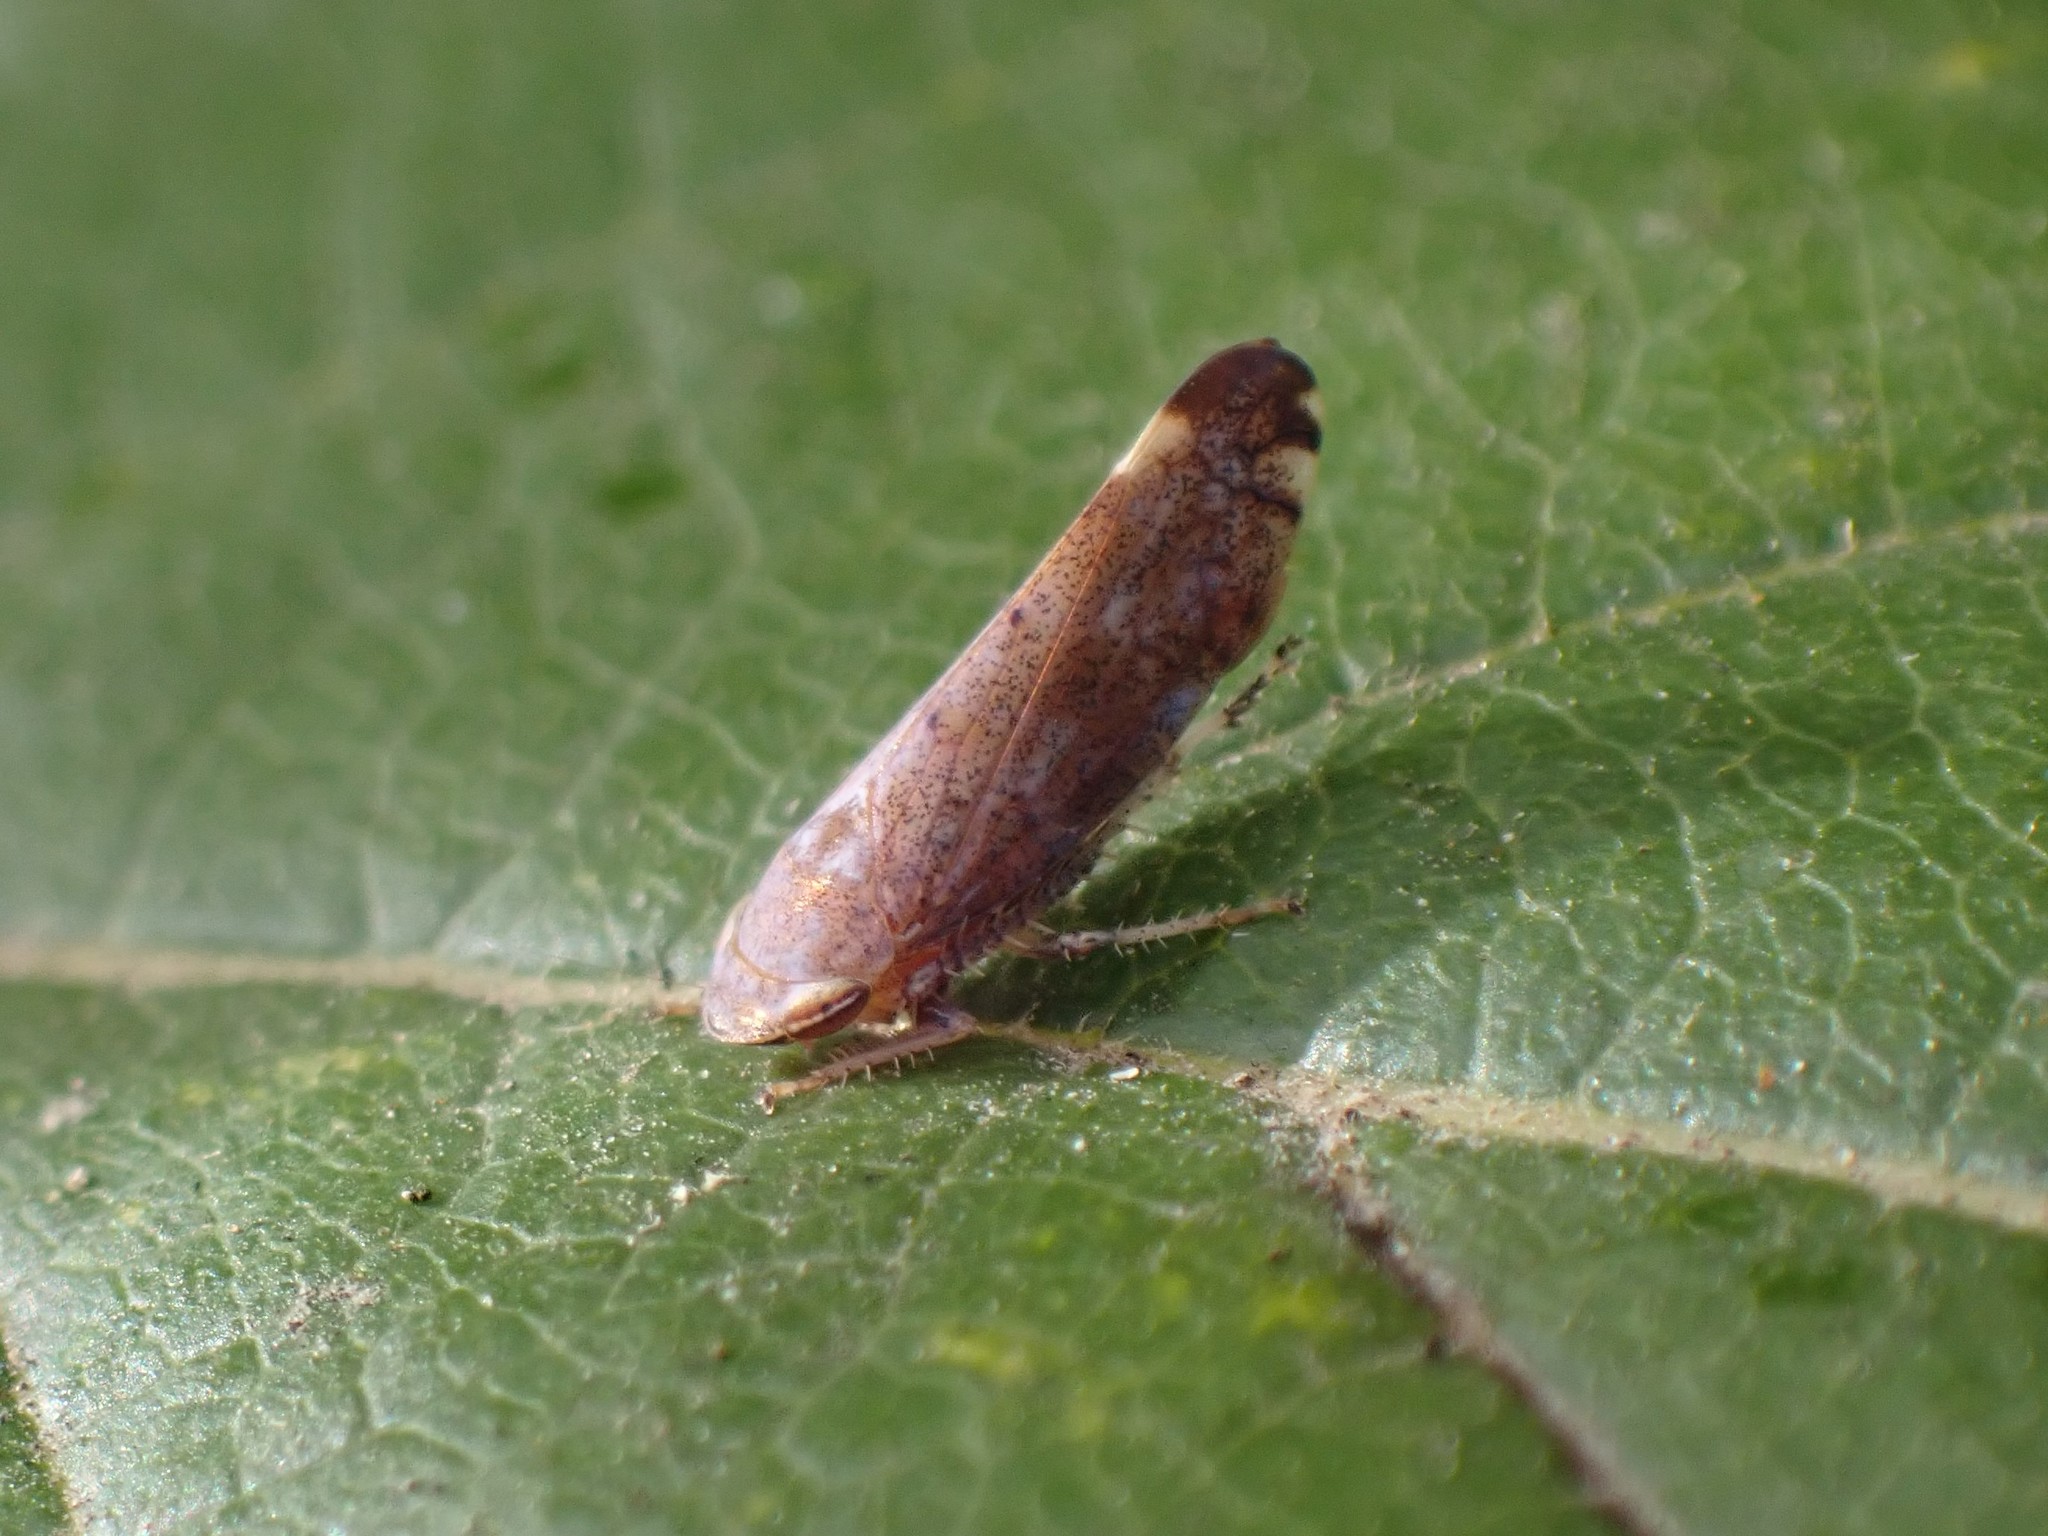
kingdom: Animalia
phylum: Arthropoda
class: Insecta
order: Hemiptera
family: Cicadellidae
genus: Fieberiella
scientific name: Fieberiella florii
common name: Flor’s leafhopper
